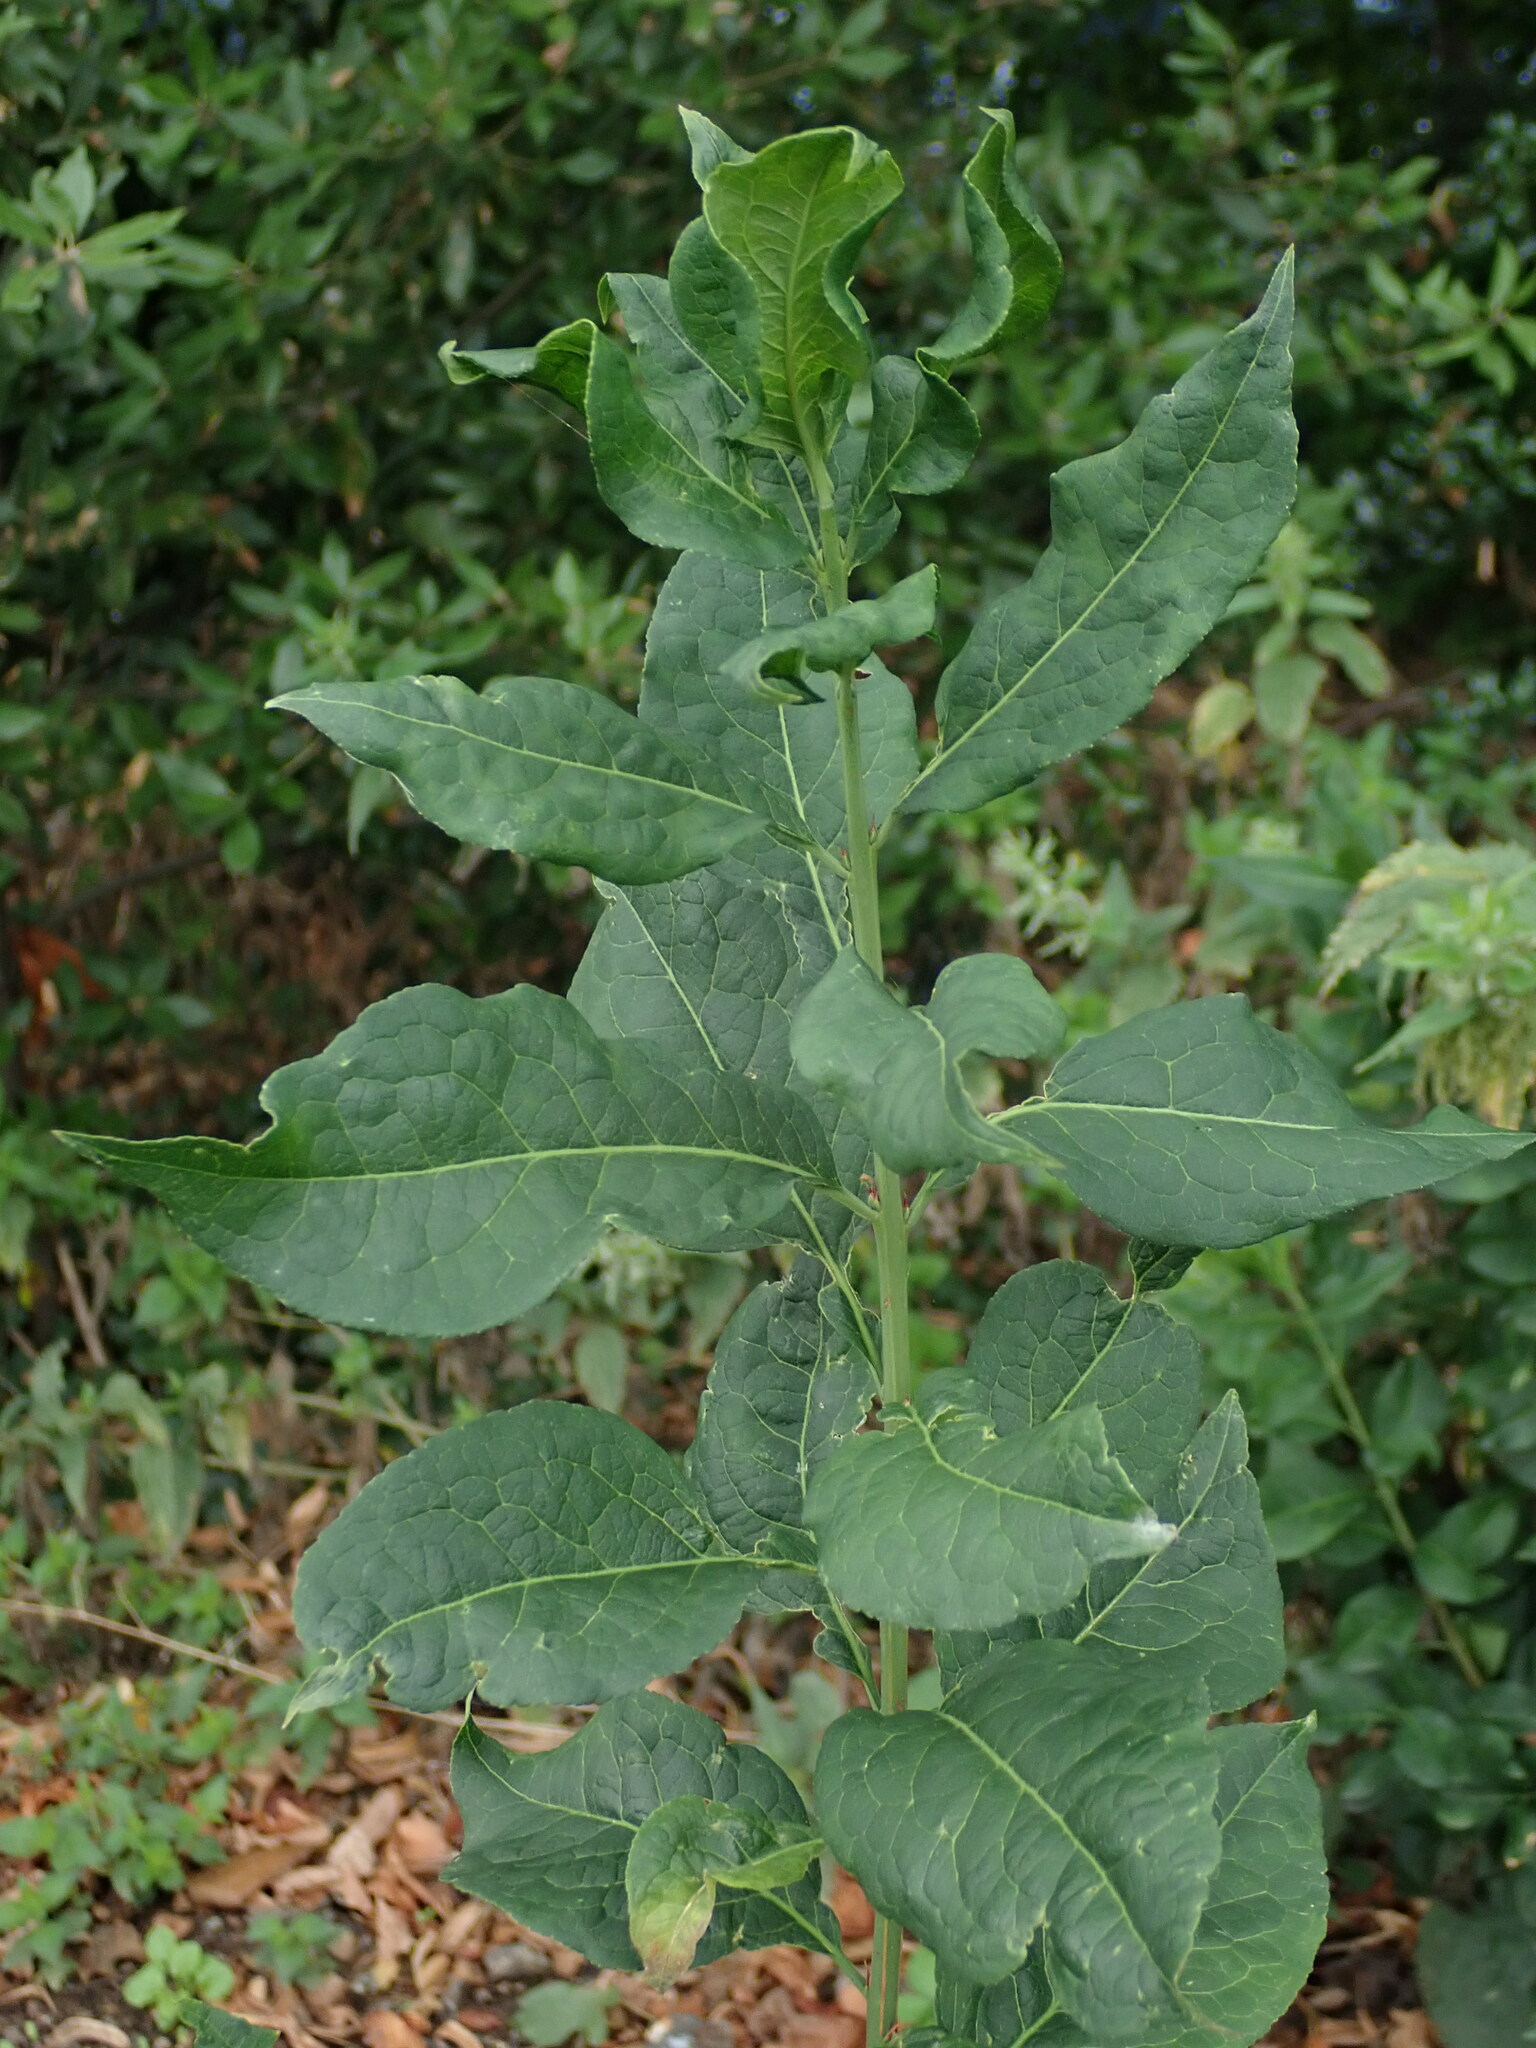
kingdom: Plantae
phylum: Tracheophyta
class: Magnoliopsida
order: Celastrales
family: Celastraceae
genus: Euonymus
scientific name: Euonymus europaeus
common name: Spindle
